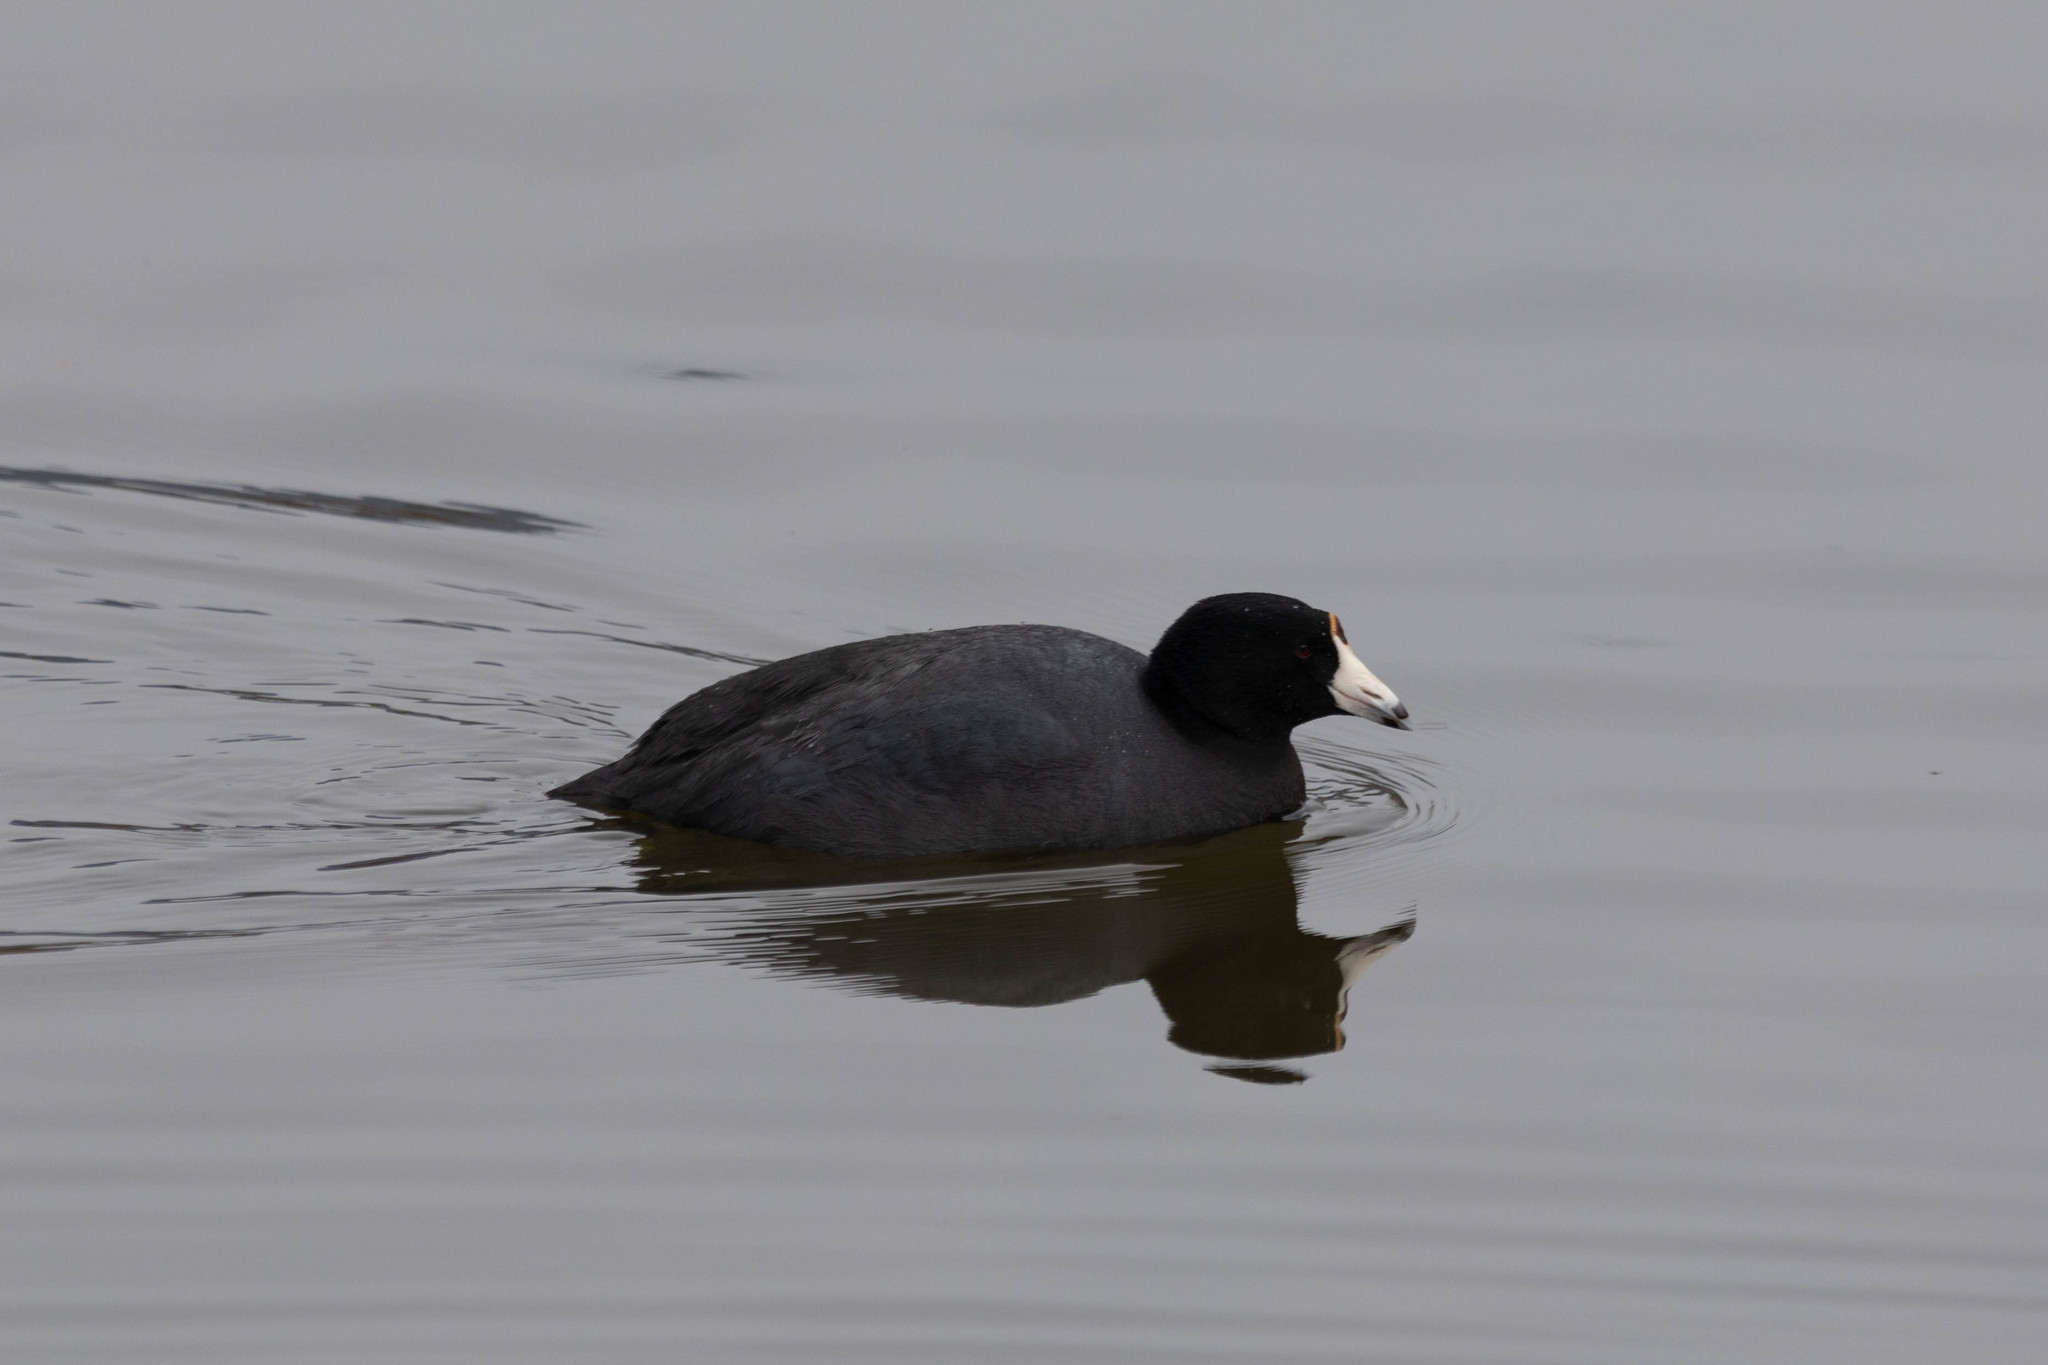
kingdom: Animalia
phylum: Chordata
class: Aves
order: Gruiformes
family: Rallidae
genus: Fulica
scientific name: Fulica americana
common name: American coot
